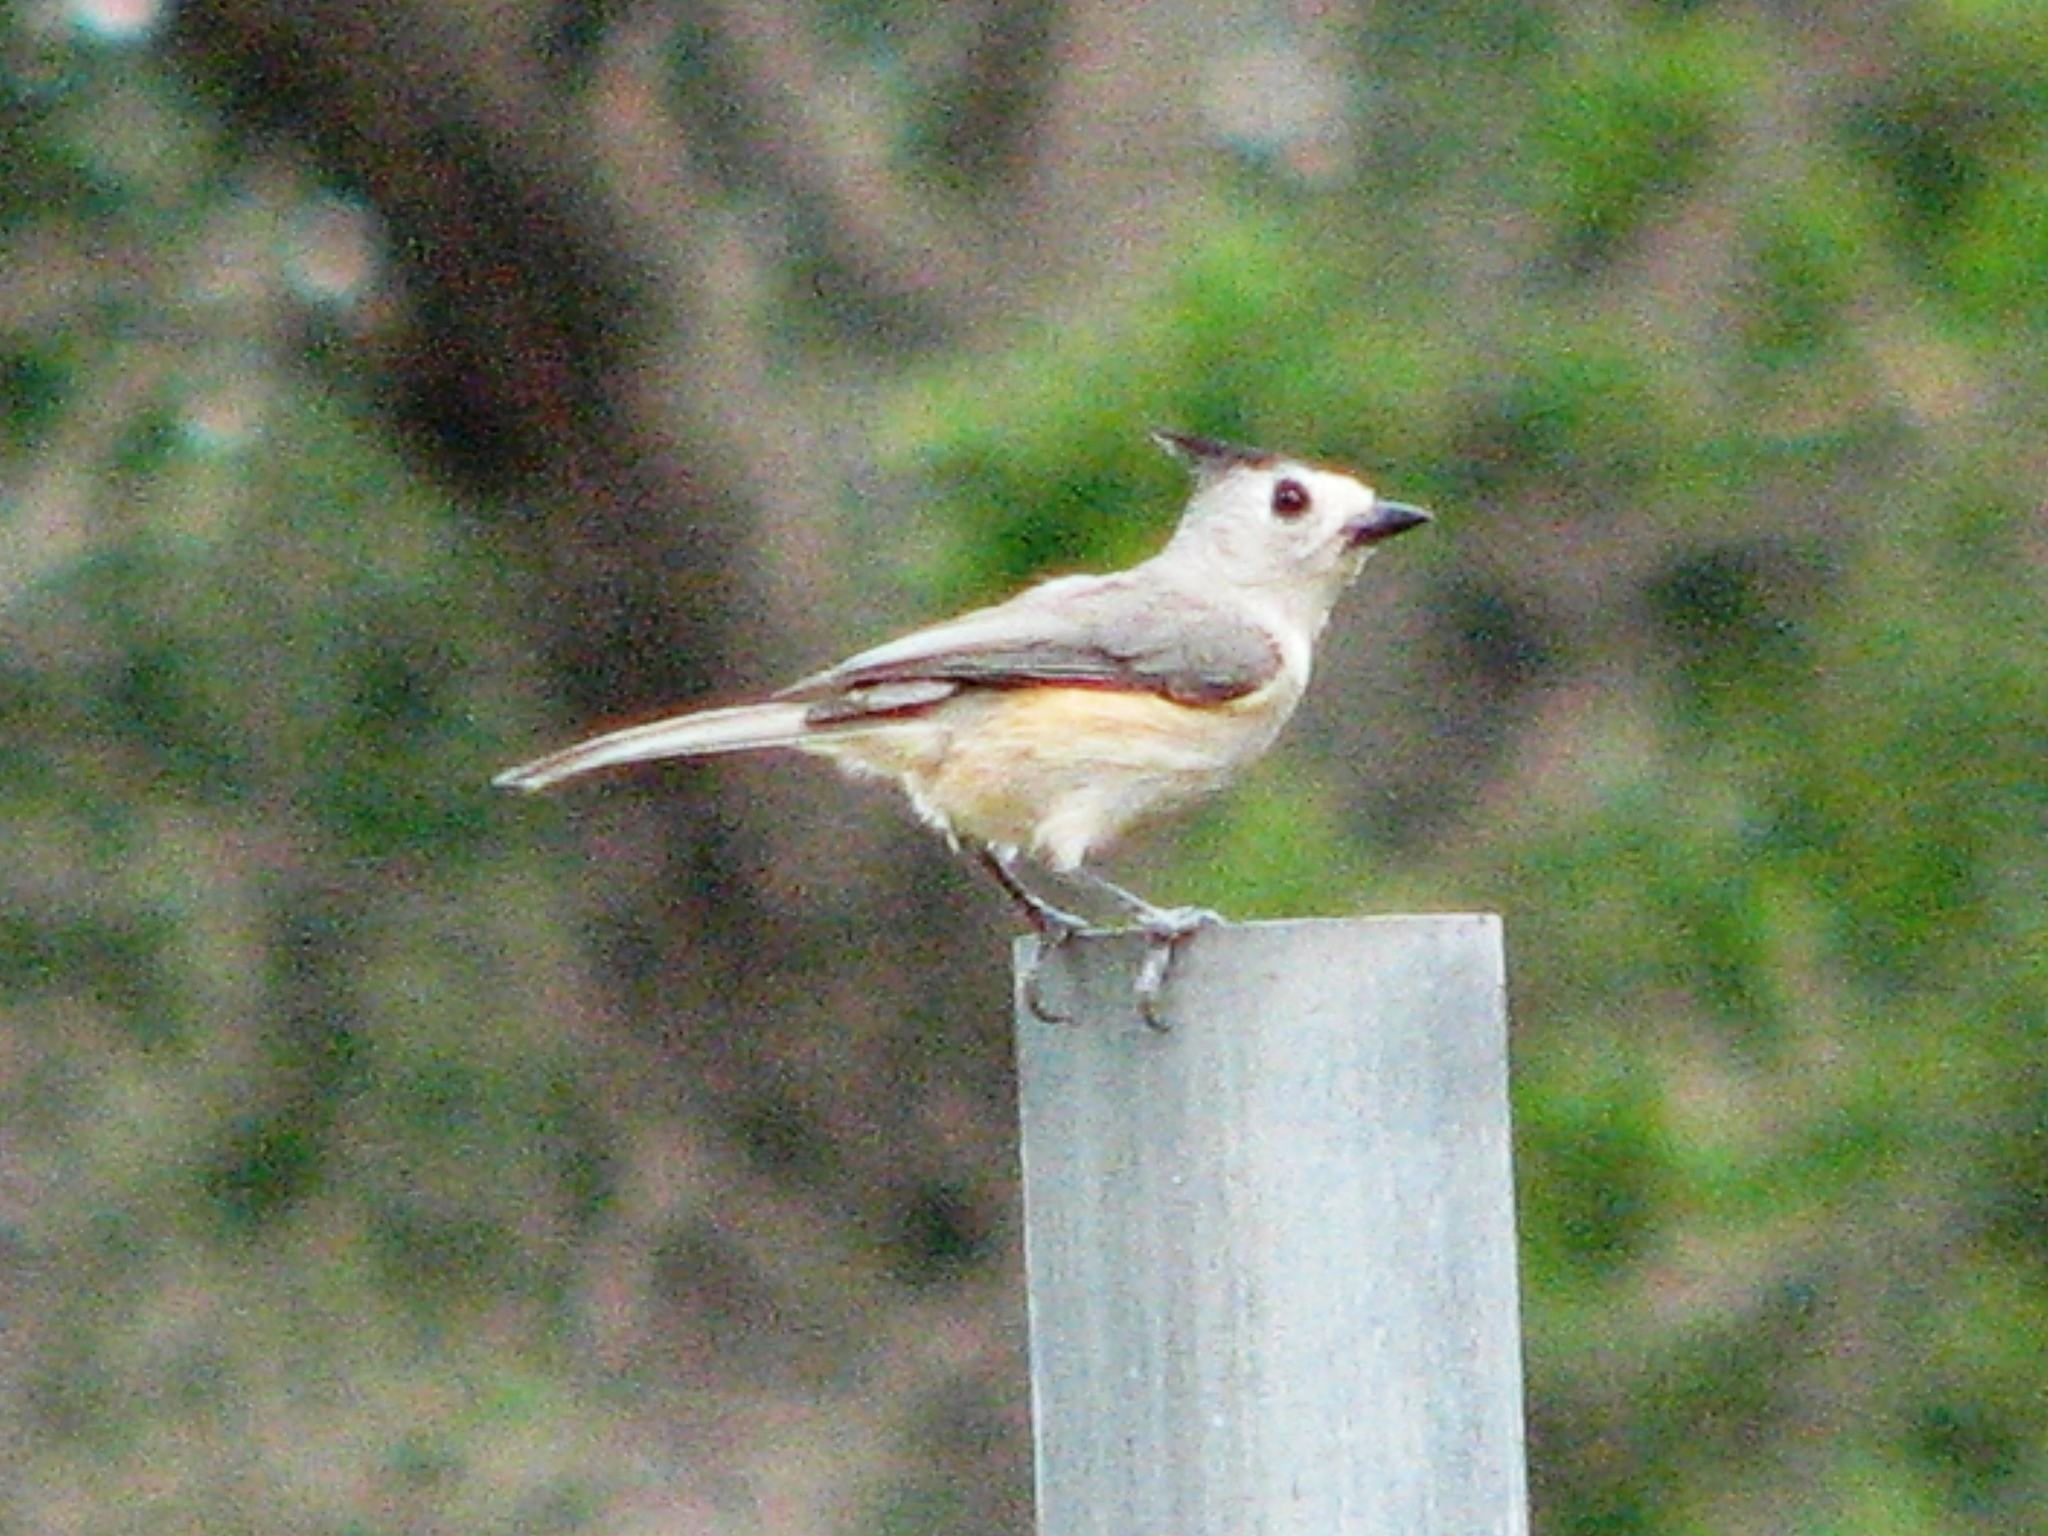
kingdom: Animalia
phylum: Chordata
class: Aves
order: Passeriformes
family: Paridae
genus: Baeolophus
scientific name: Baeolophus atricristatus
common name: Black-crested titmouse
